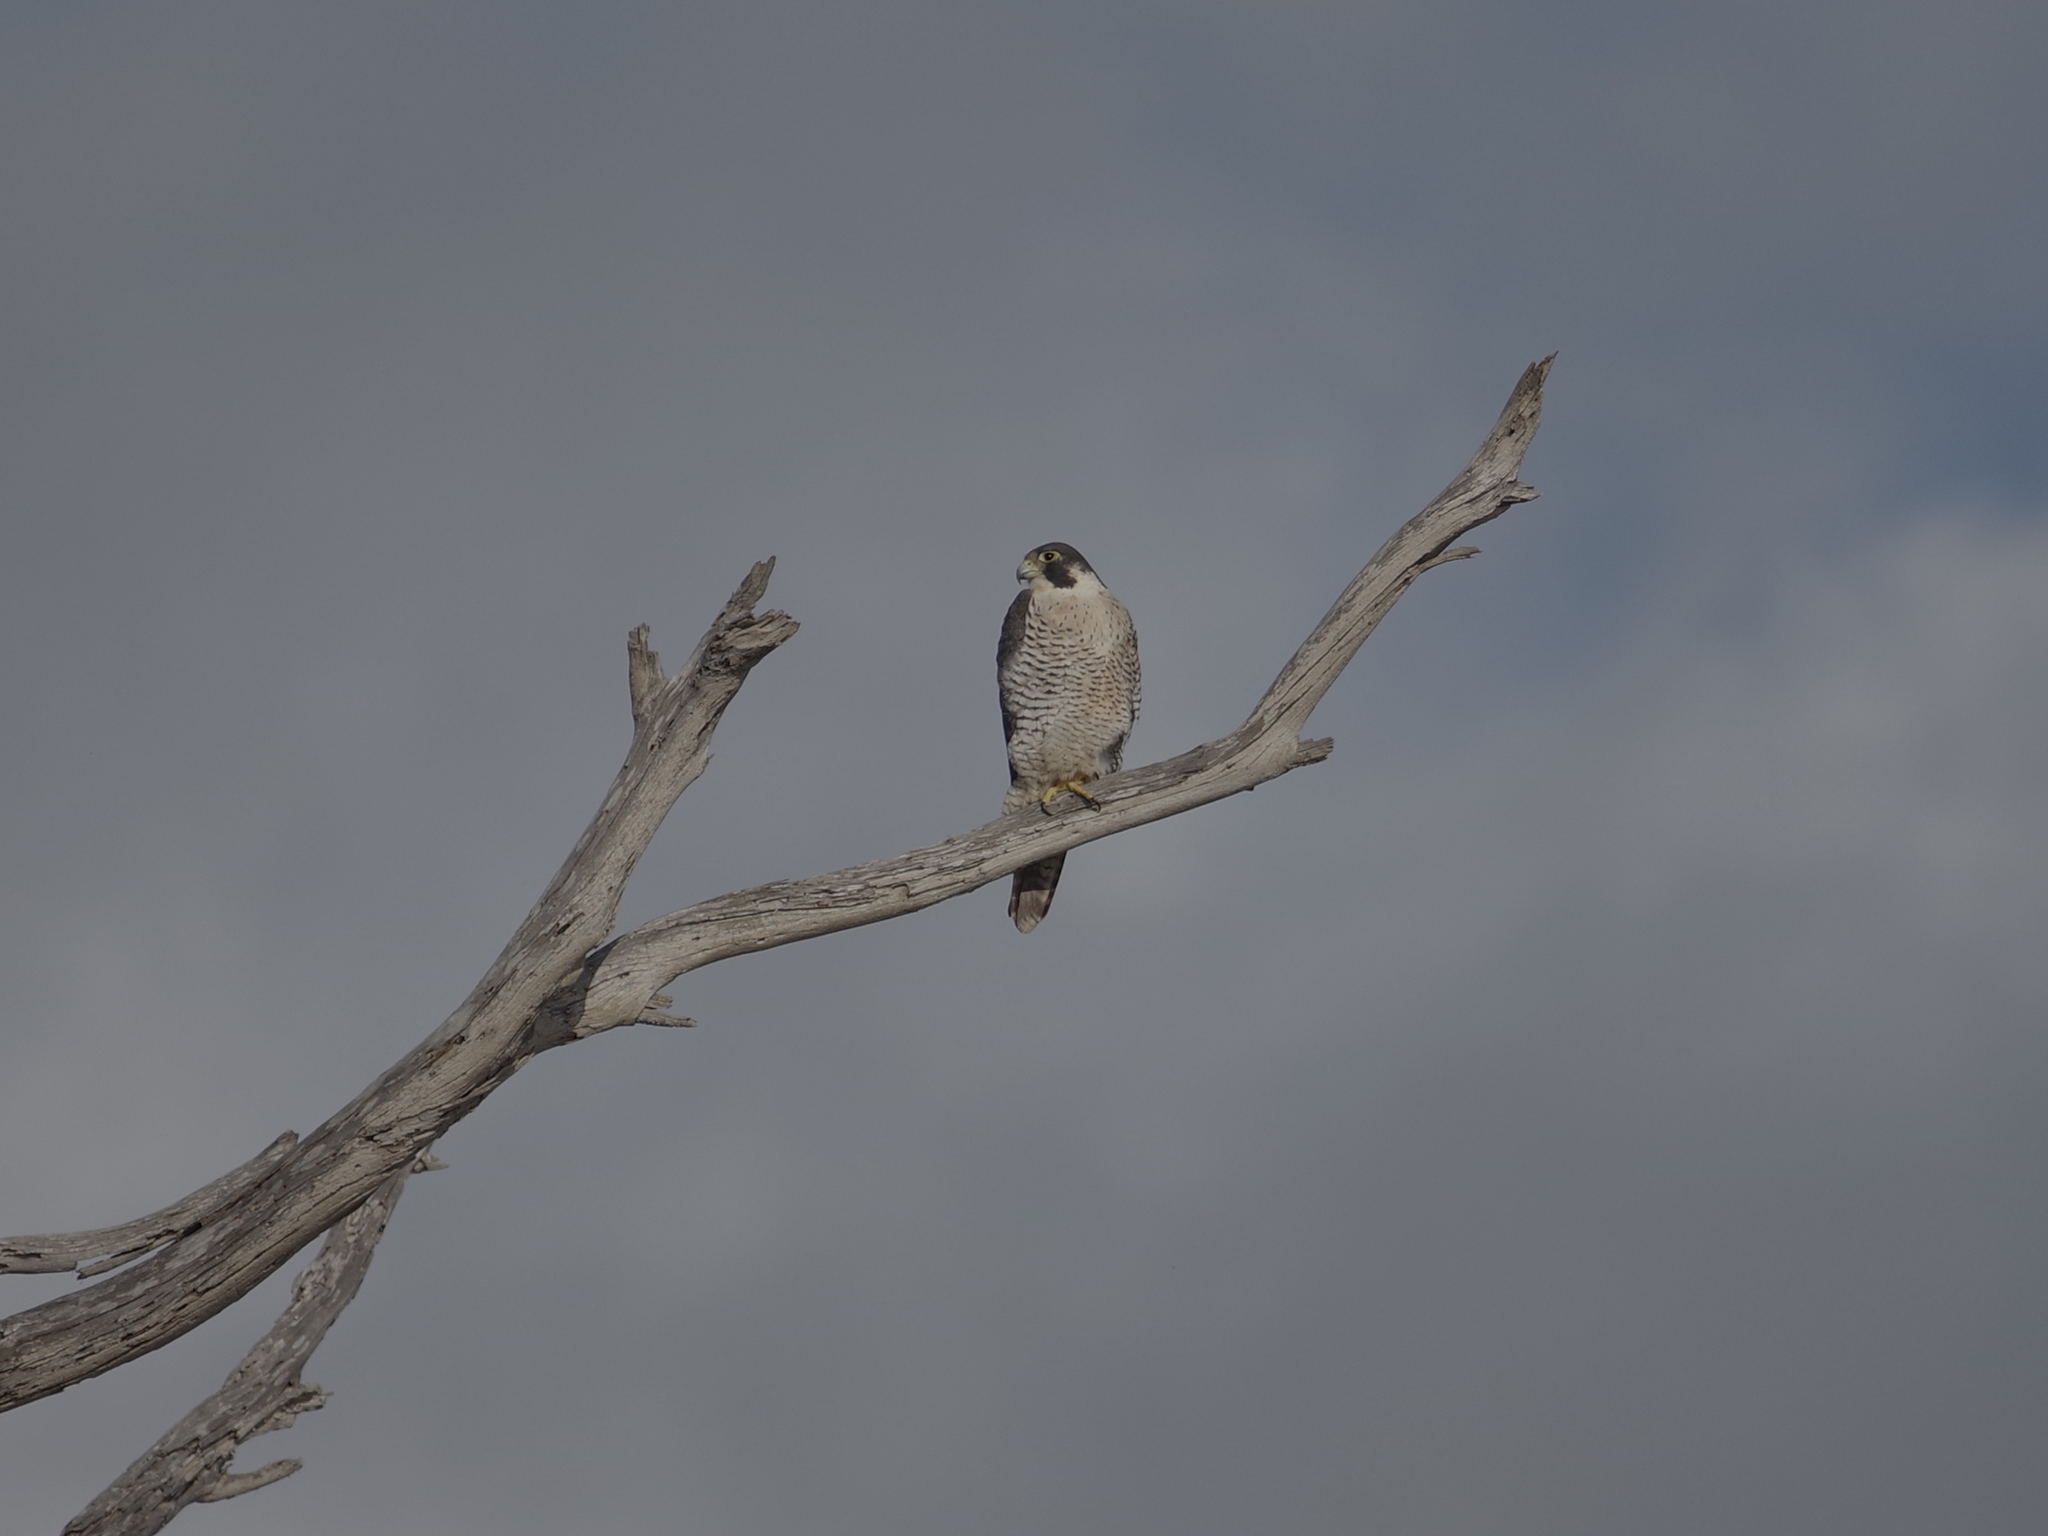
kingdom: Animalia
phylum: Chordata
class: Aves
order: Falconiformes
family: Falconidae
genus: Falco
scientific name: Falco peregrinus
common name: Peregrine falcon
